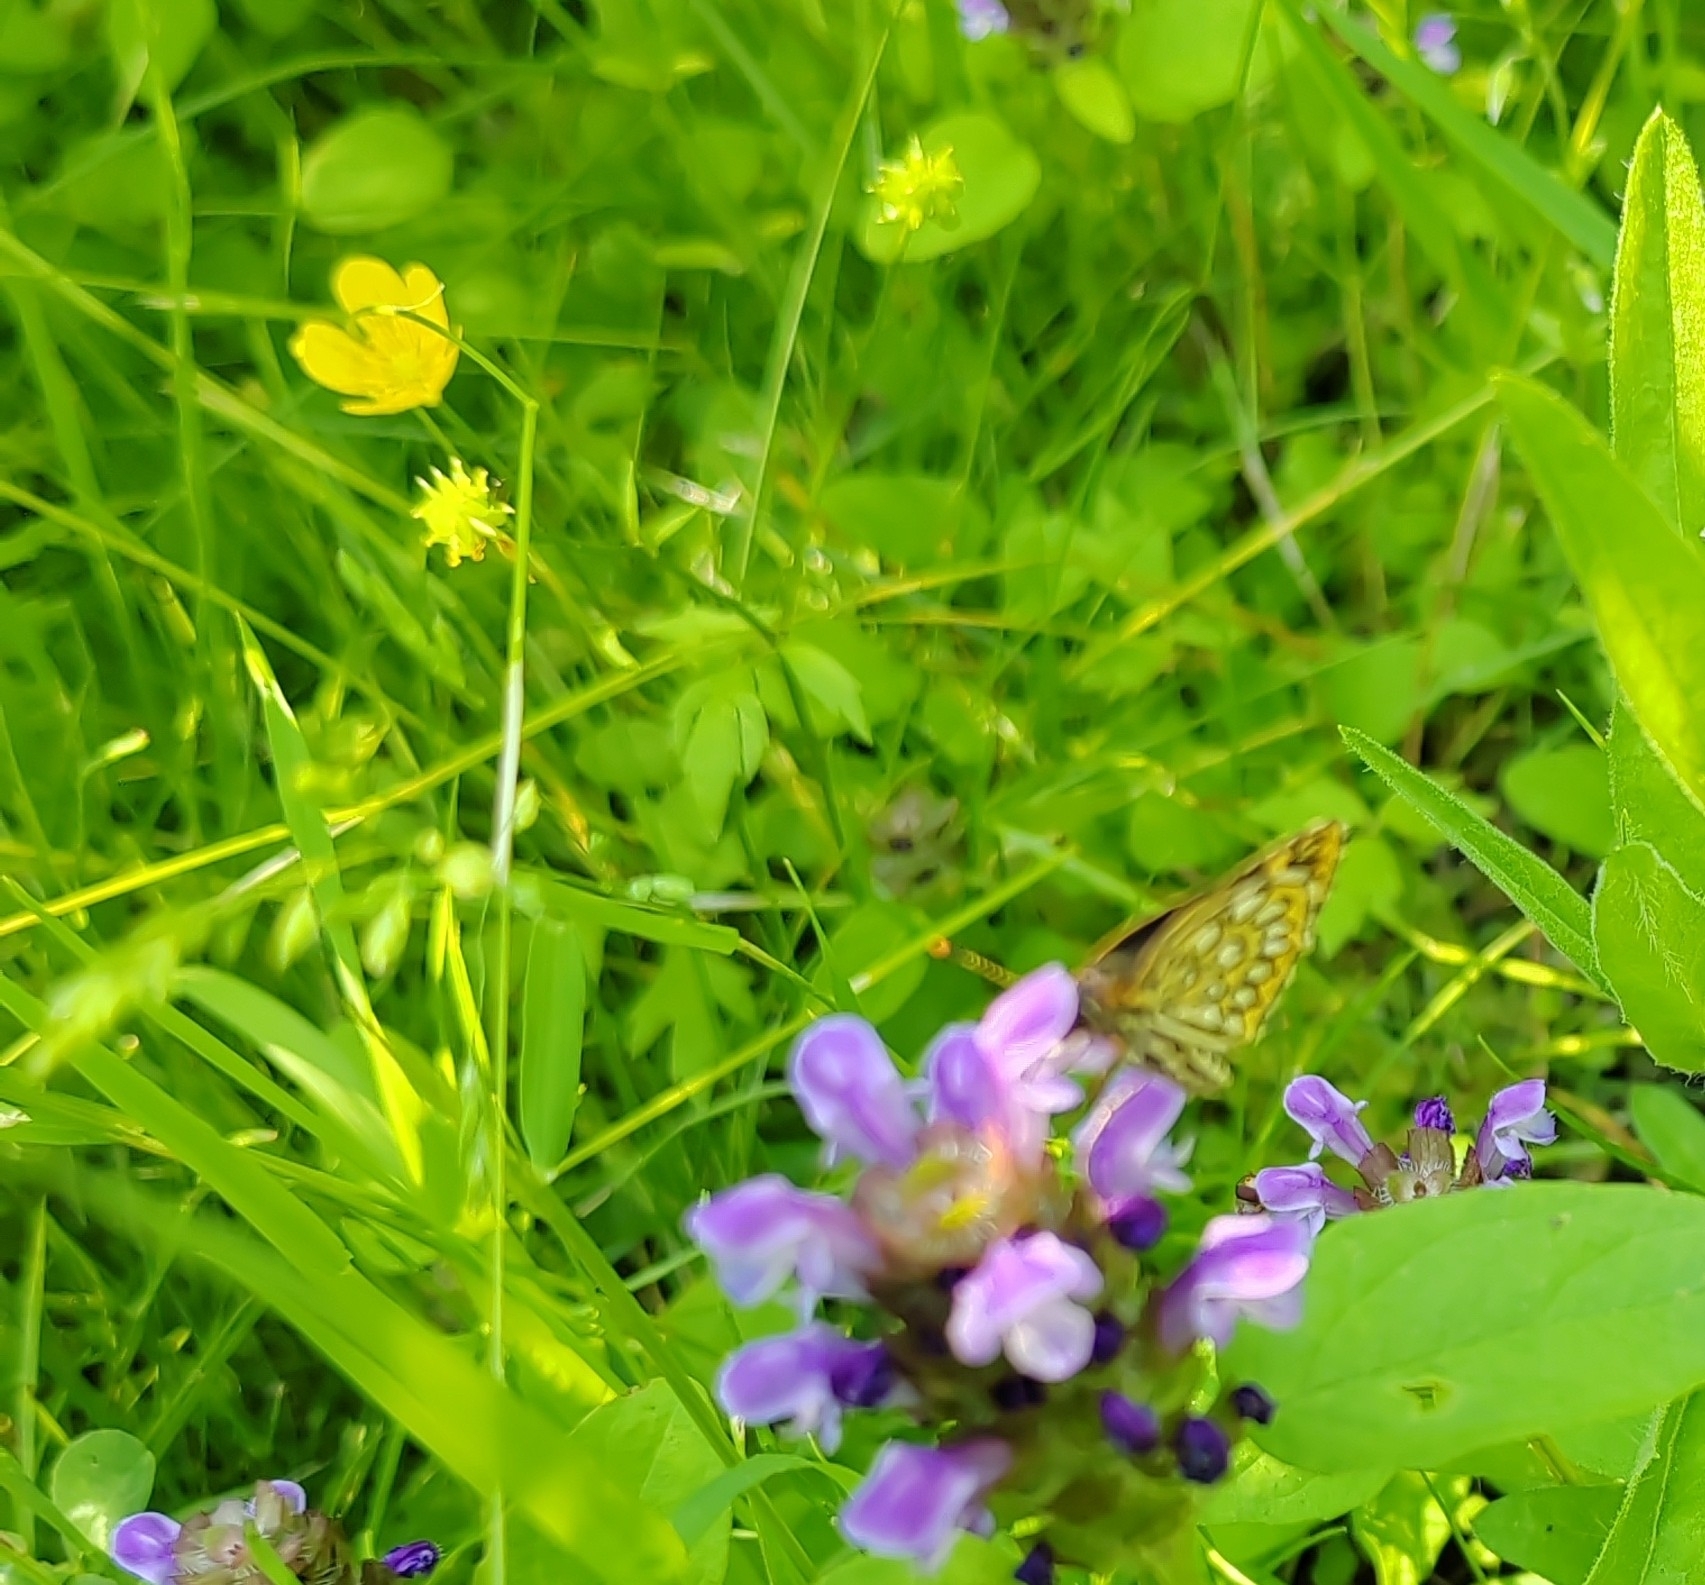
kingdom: Animalia
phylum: Arthropoda
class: Insecta
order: Lepidoptera
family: Hesperiidae
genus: Heteropterus
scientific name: Heteropterus morpheus
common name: Large chequered skipper
